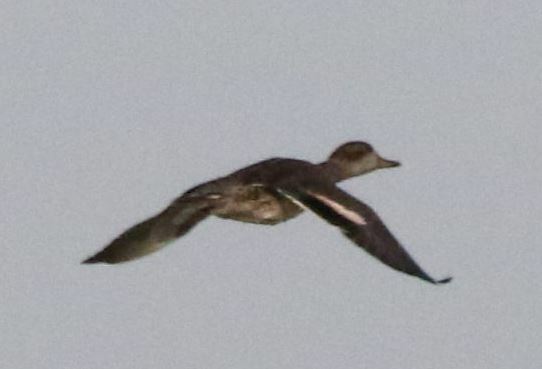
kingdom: Animalia
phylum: Chordata
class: Aves
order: Anseriformes
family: Anatidae
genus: Anas
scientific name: Anas crecca
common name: Eurasian teal
